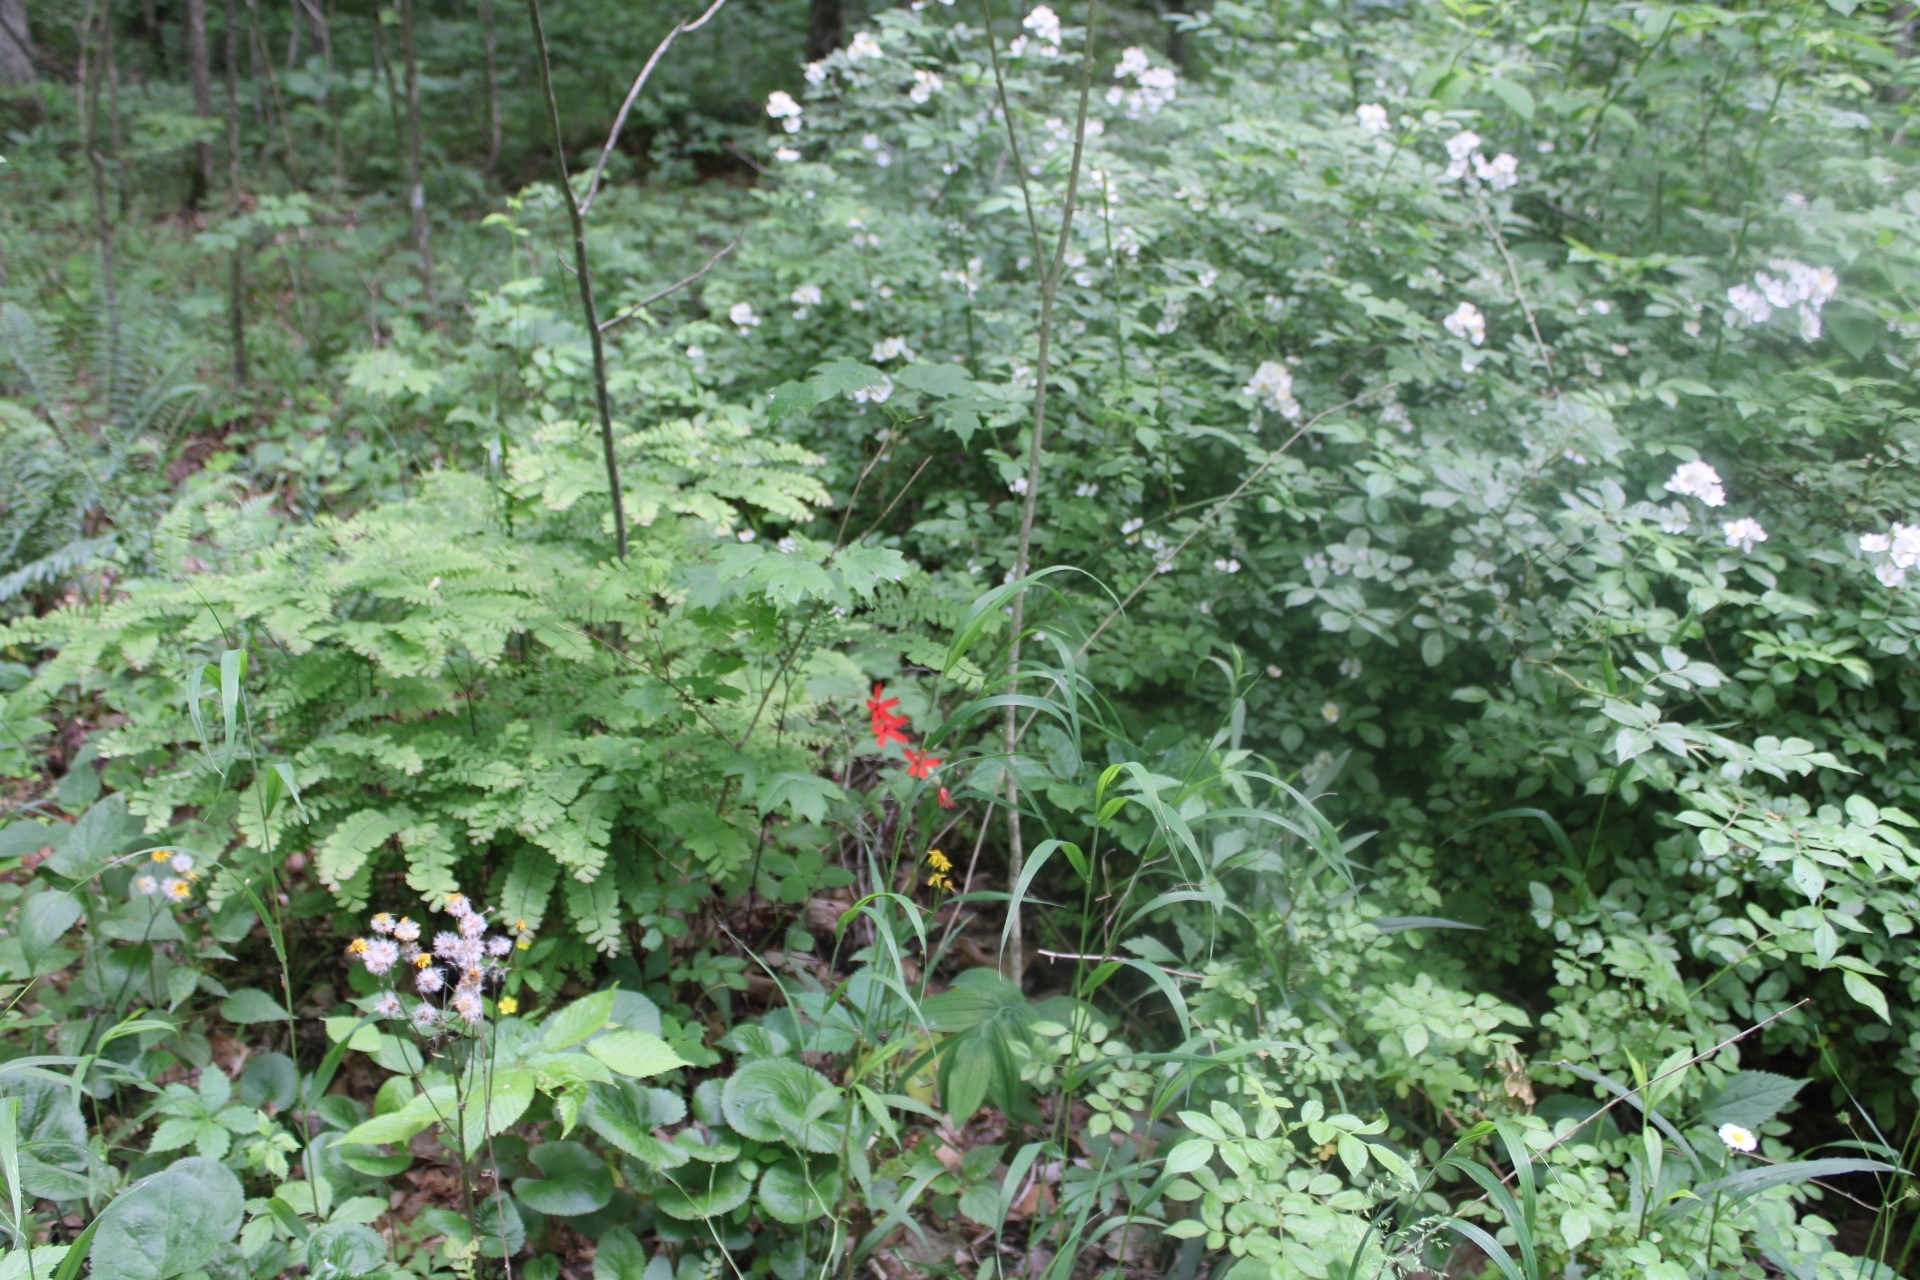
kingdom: Plantae
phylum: Tracheophyta
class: Polypodiopsida
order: Polypodiales
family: Pteridaceae
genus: Adiantum
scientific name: Adiantum pedatum
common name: Five-finger fern
